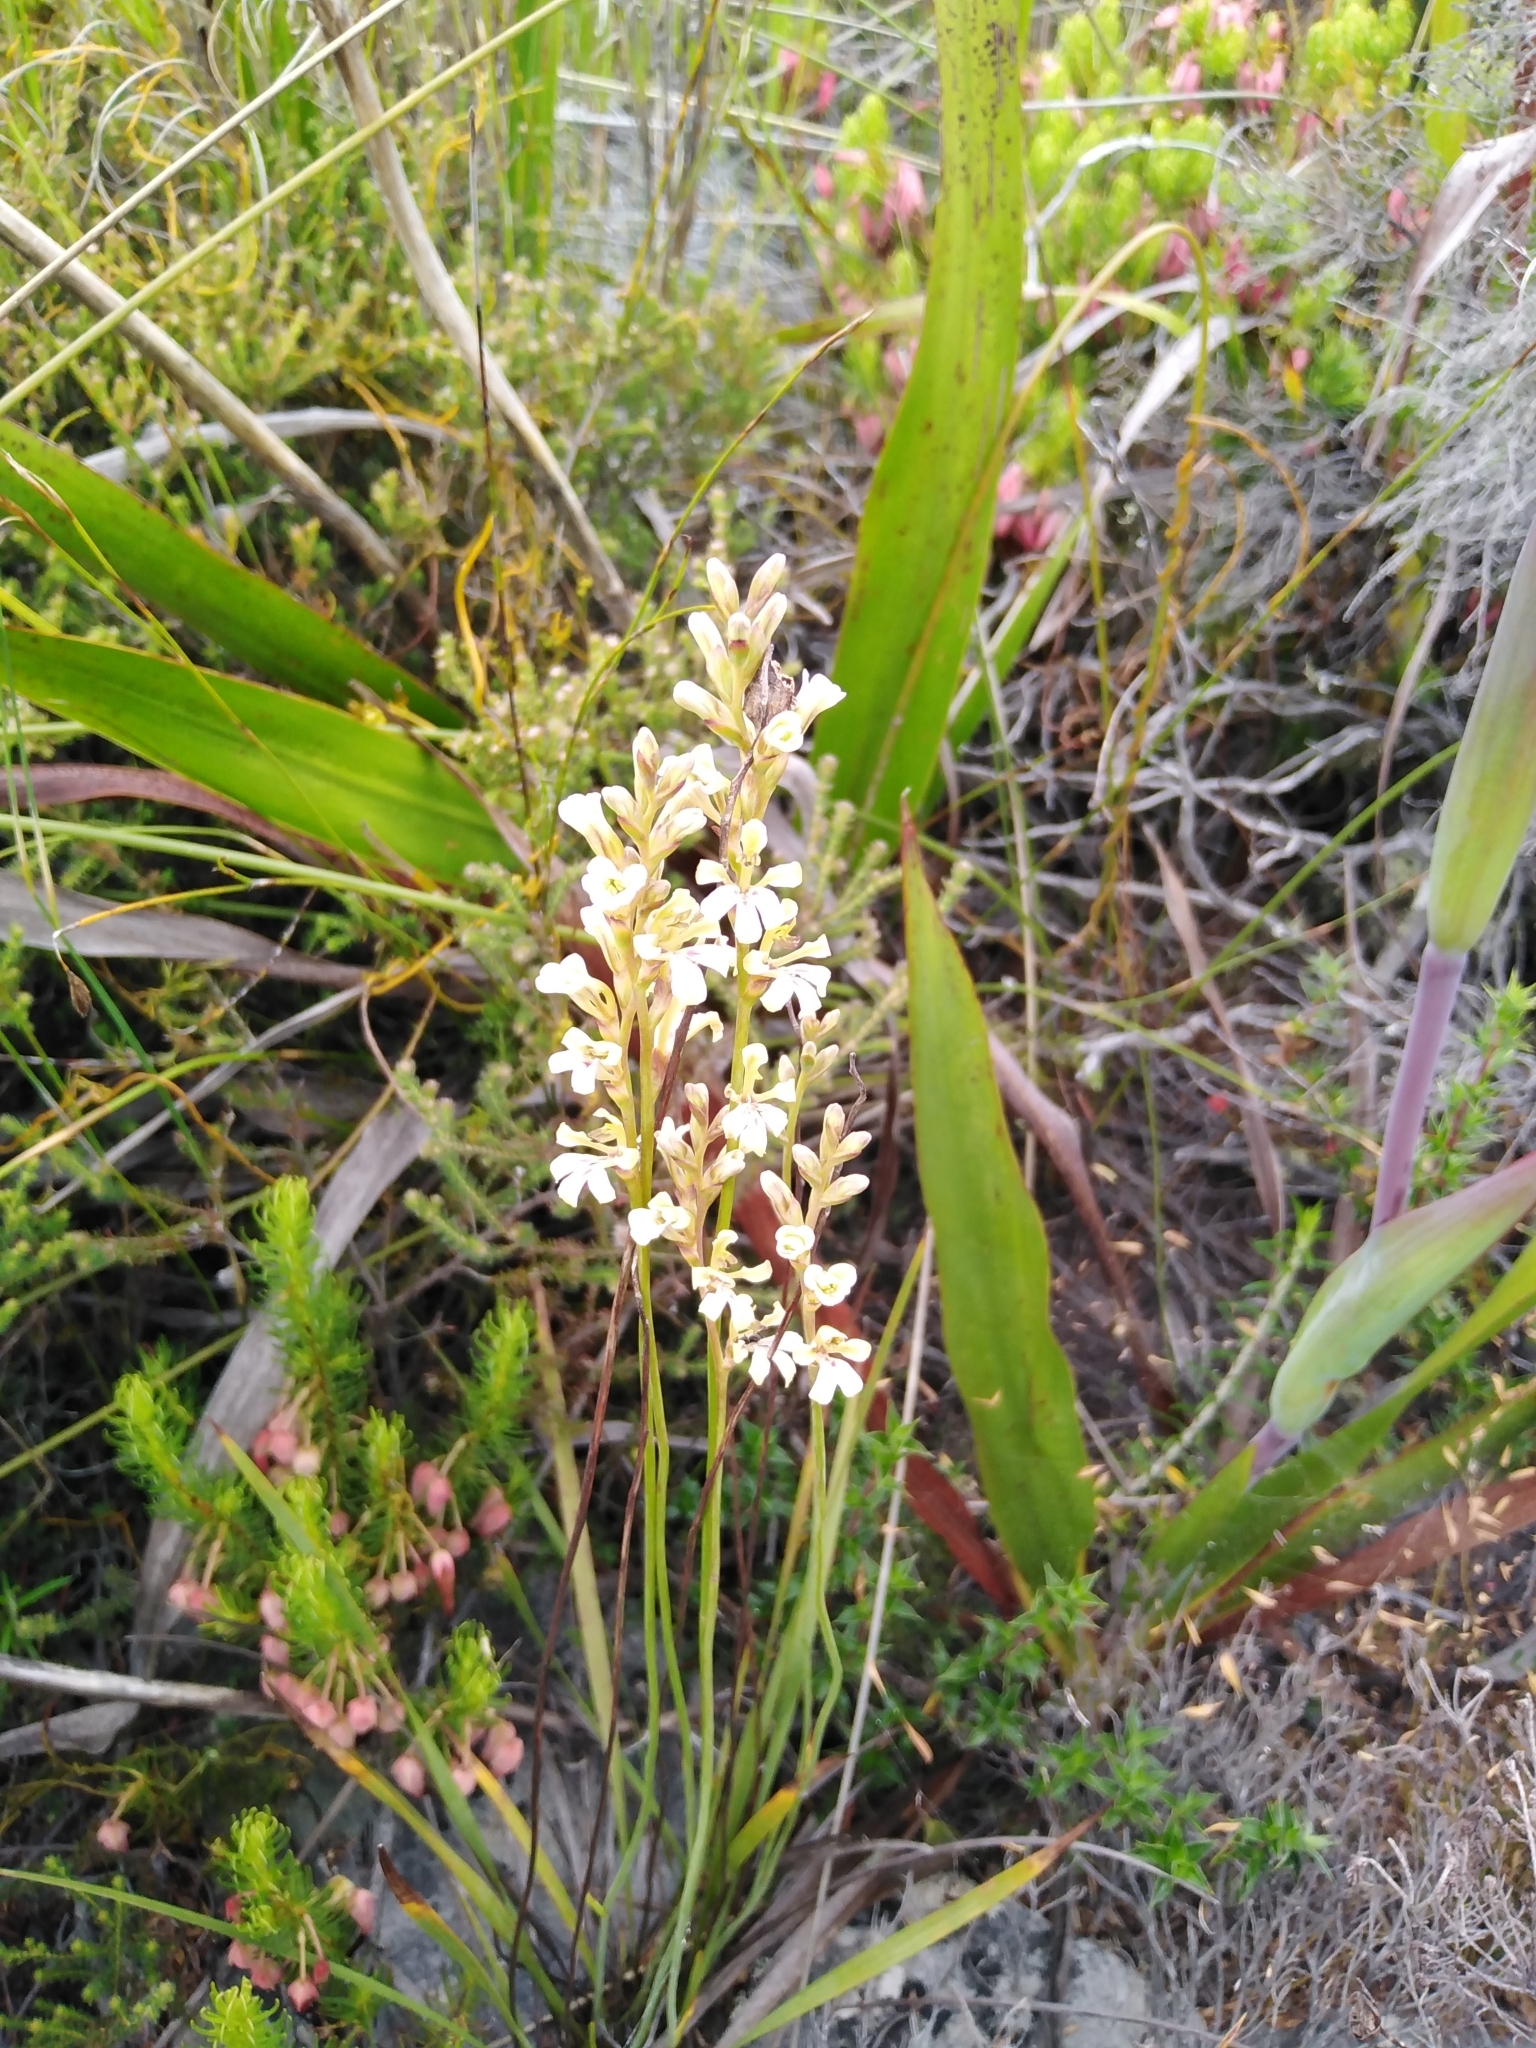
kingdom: Plantae
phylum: Tracheophyta
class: Liliopsida
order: Asparagales
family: Iridaceae
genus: Tritoniopsis
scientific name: Tritoniopsis unguicularis
